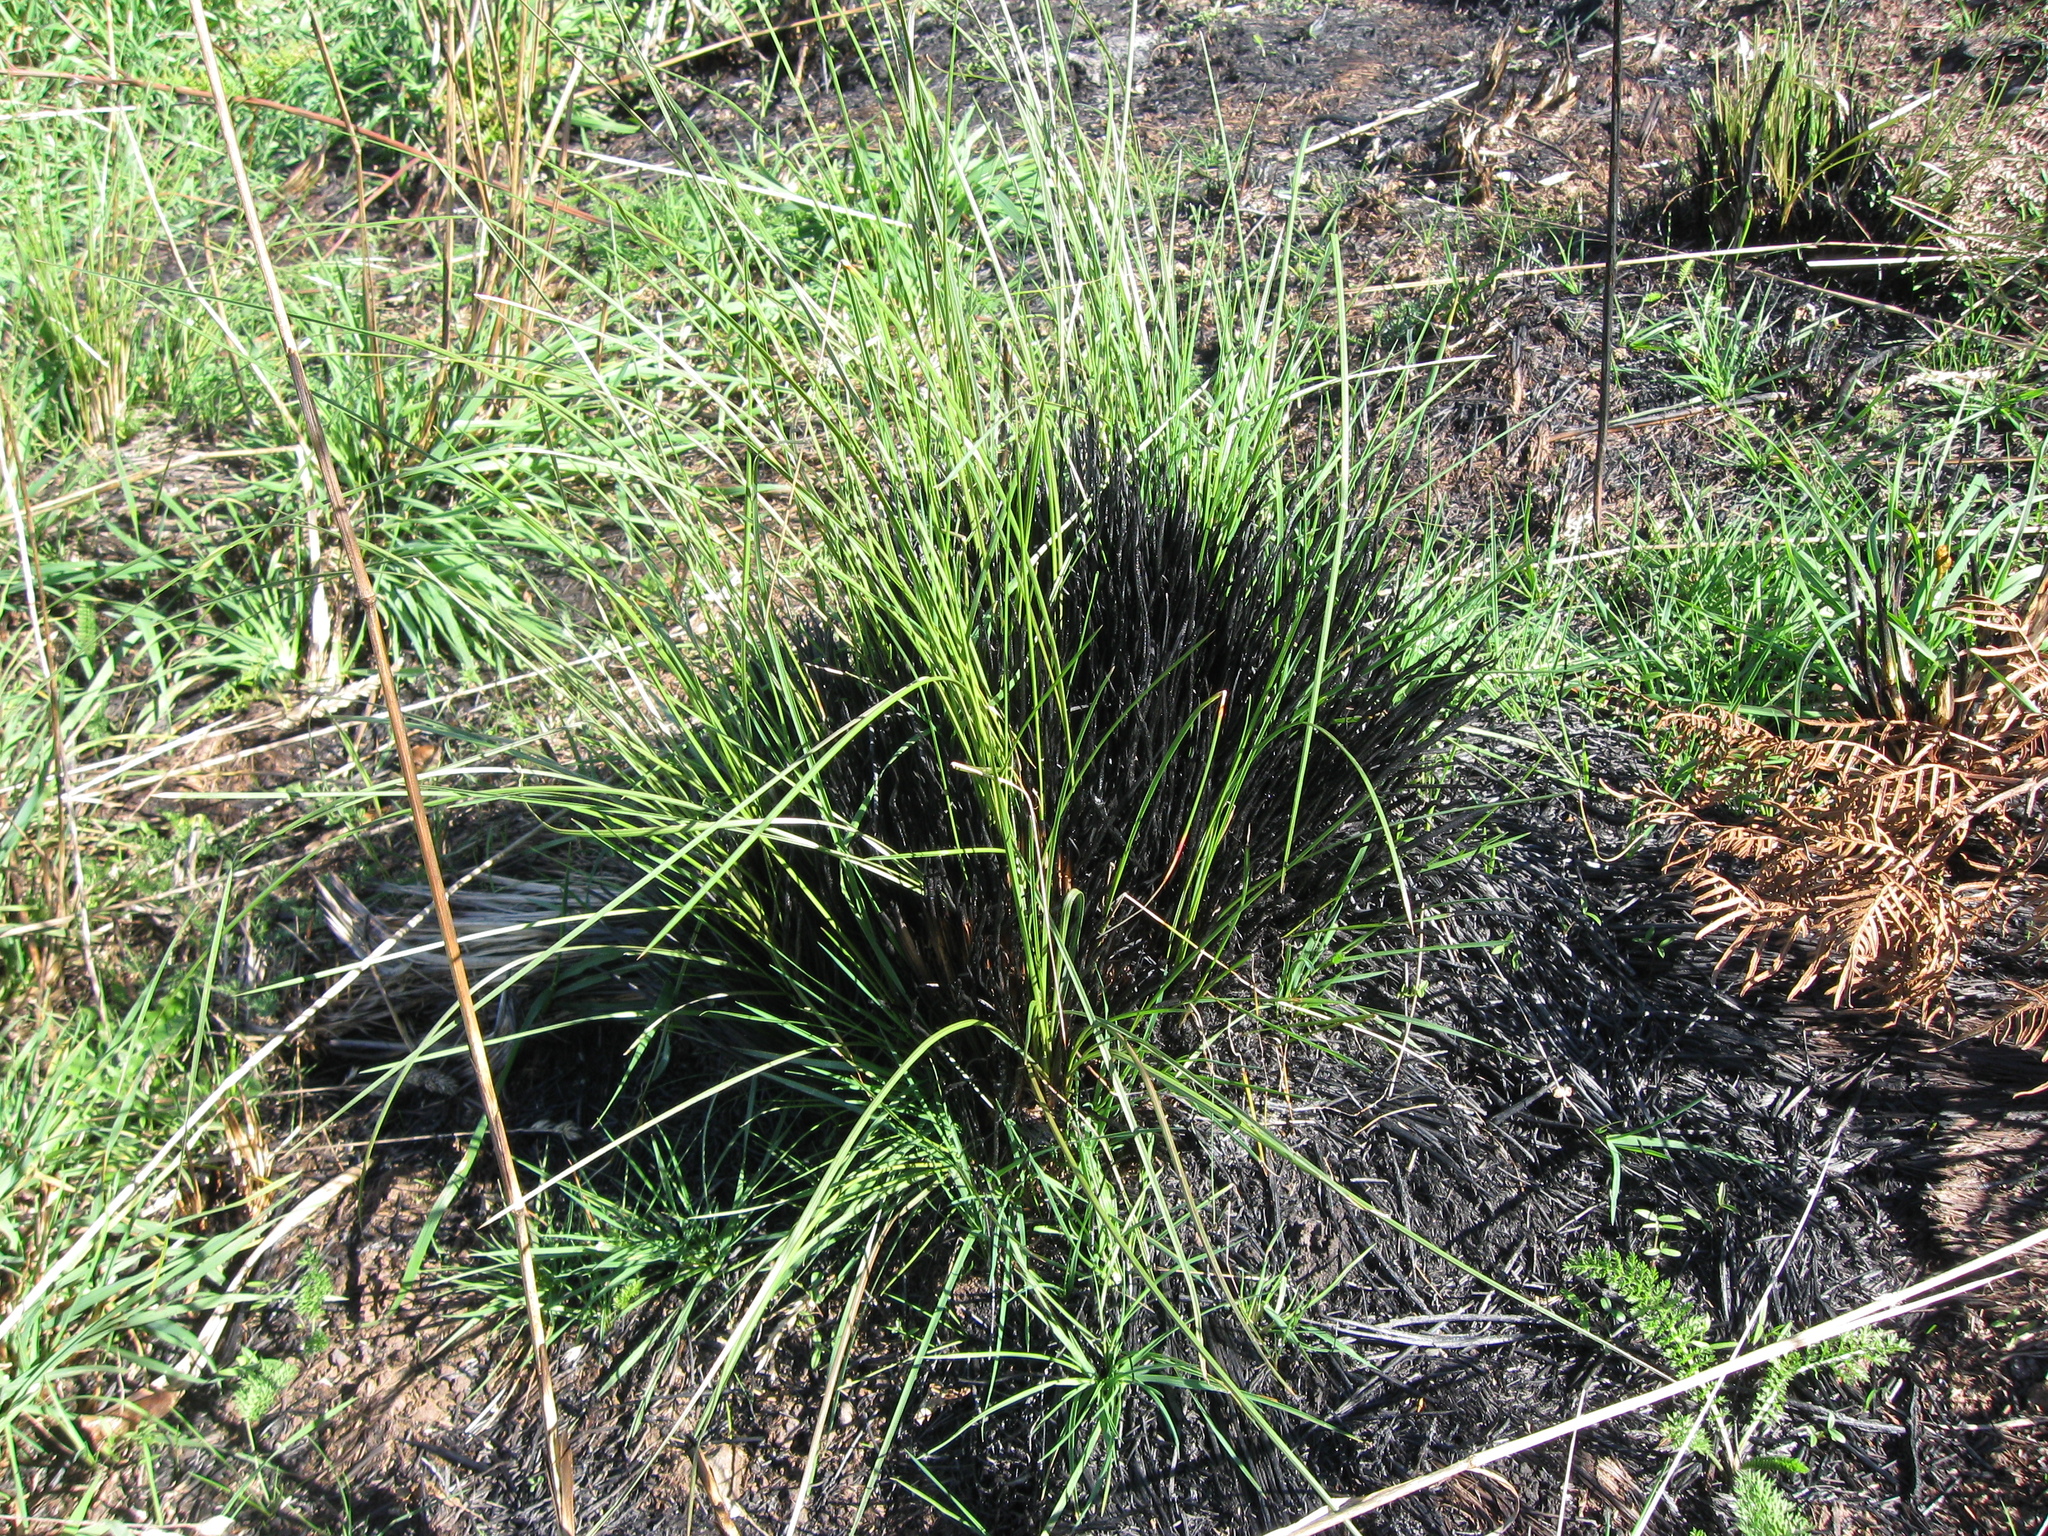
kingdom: Plantae
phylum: Tracheophyta
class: Liliopsida
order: Poales
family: Poaceae
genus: Festuca
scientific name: Festuca novae-zelandiae
